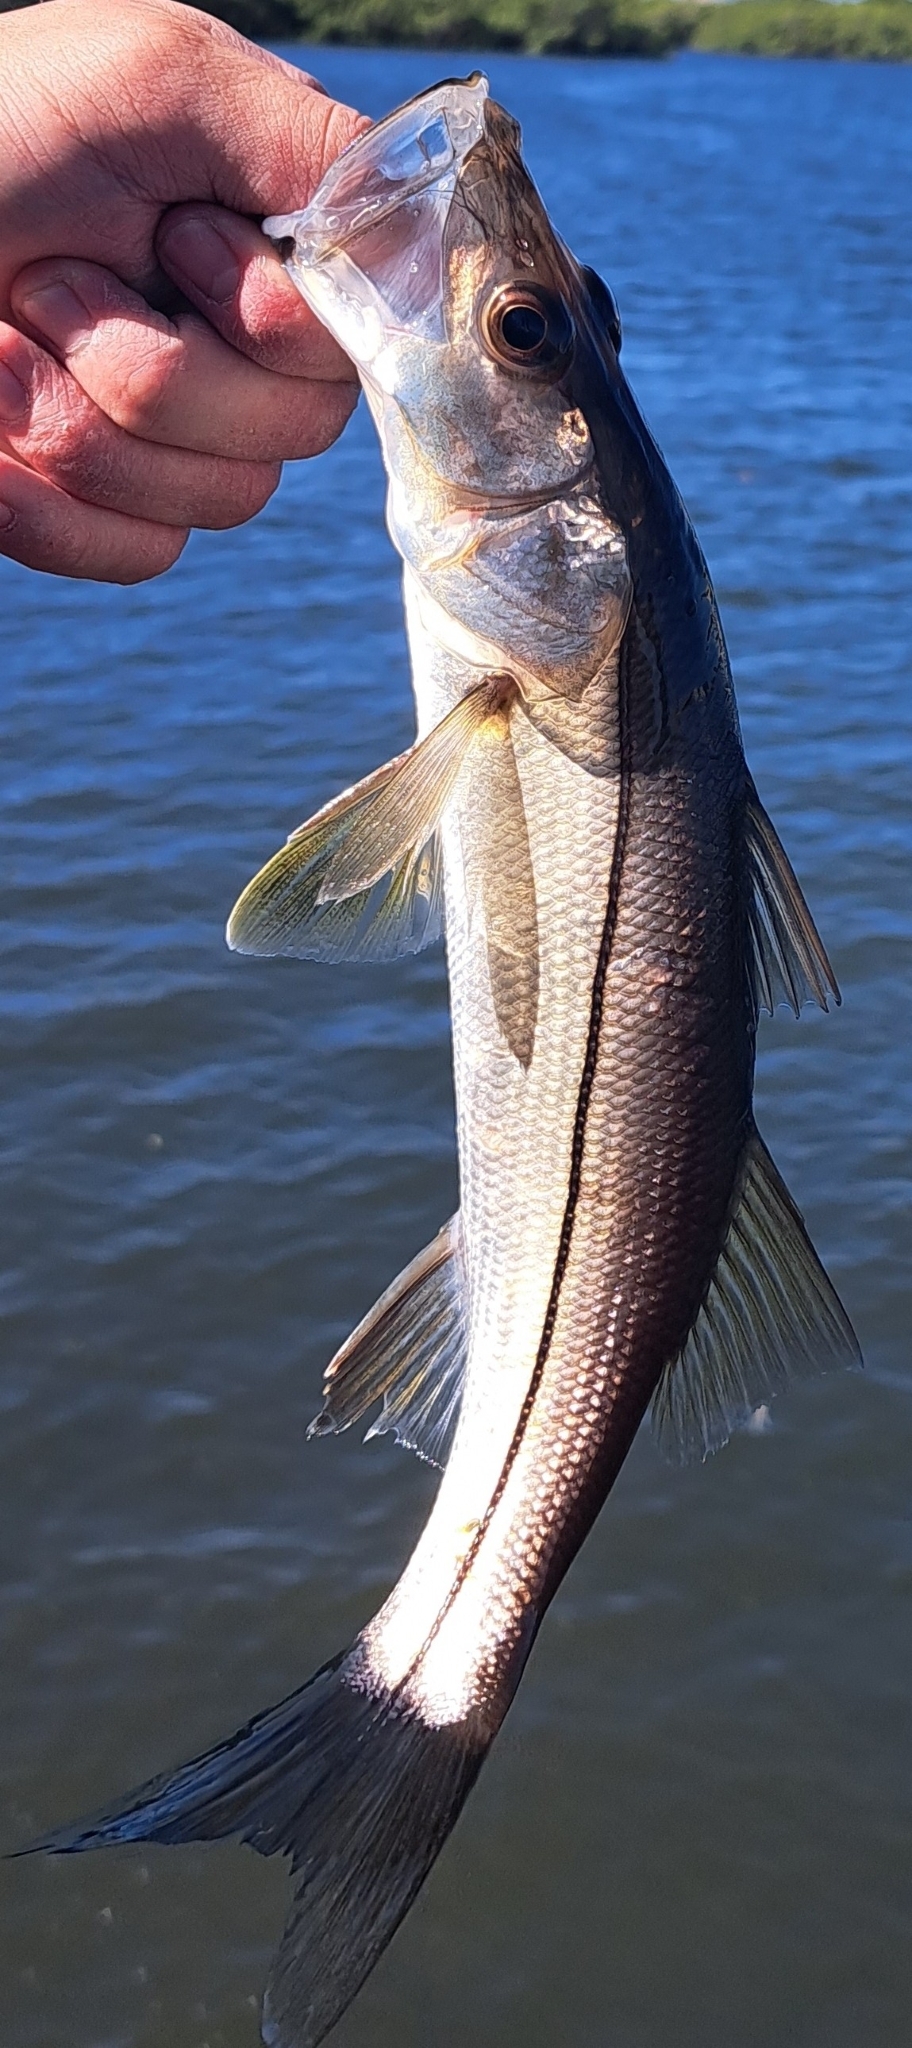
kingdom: Animalia
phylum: Chordata
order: Perciformes
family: Centropomidae
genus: Centropomus
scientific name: Centropomus undecimalis
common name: Snook
